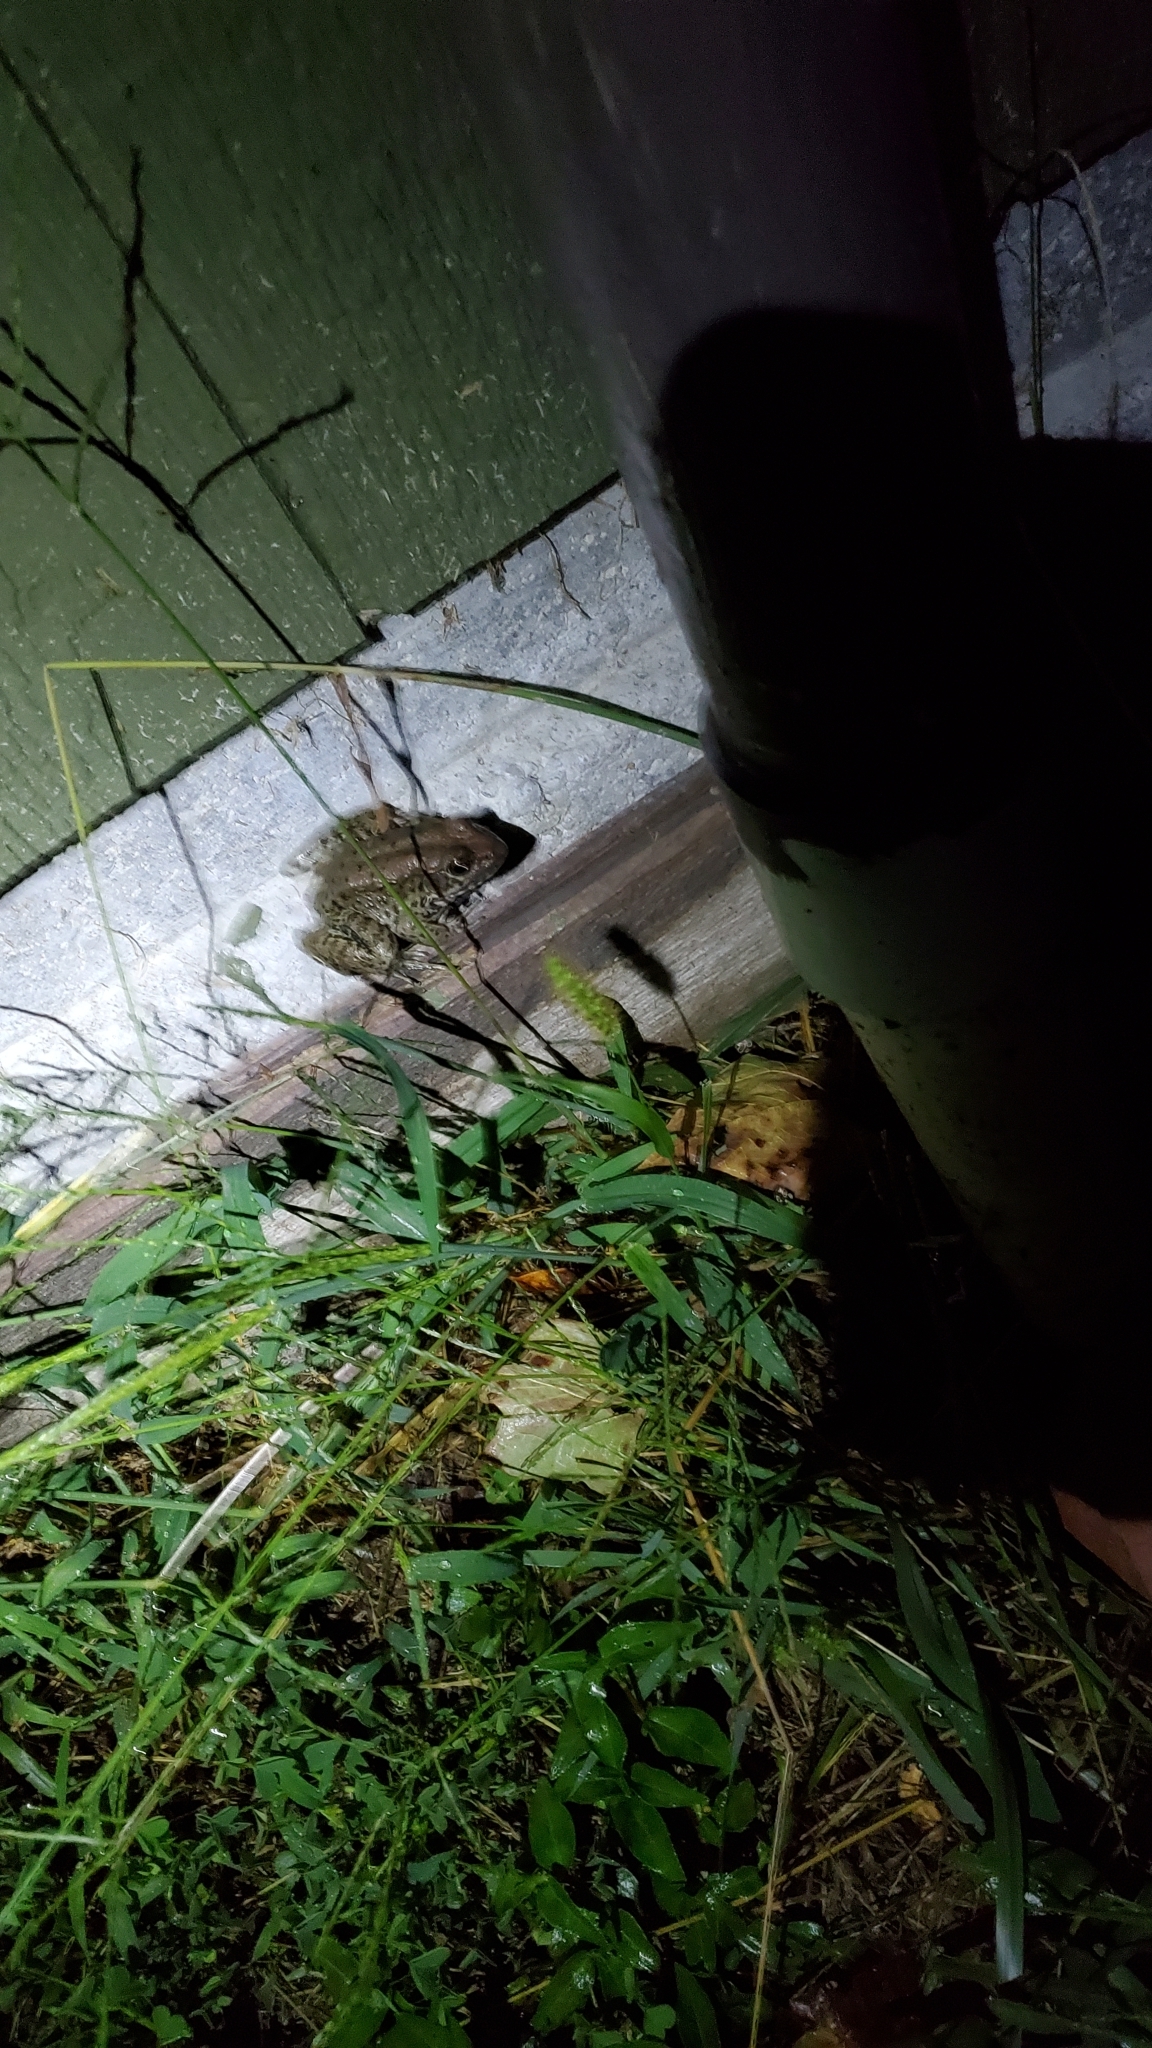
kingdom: Animalia
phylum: Chordata
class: Amphibia
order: Anura
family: Ranidae
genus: Lithobates
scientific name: Lithobates clamitans
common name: Green frog
